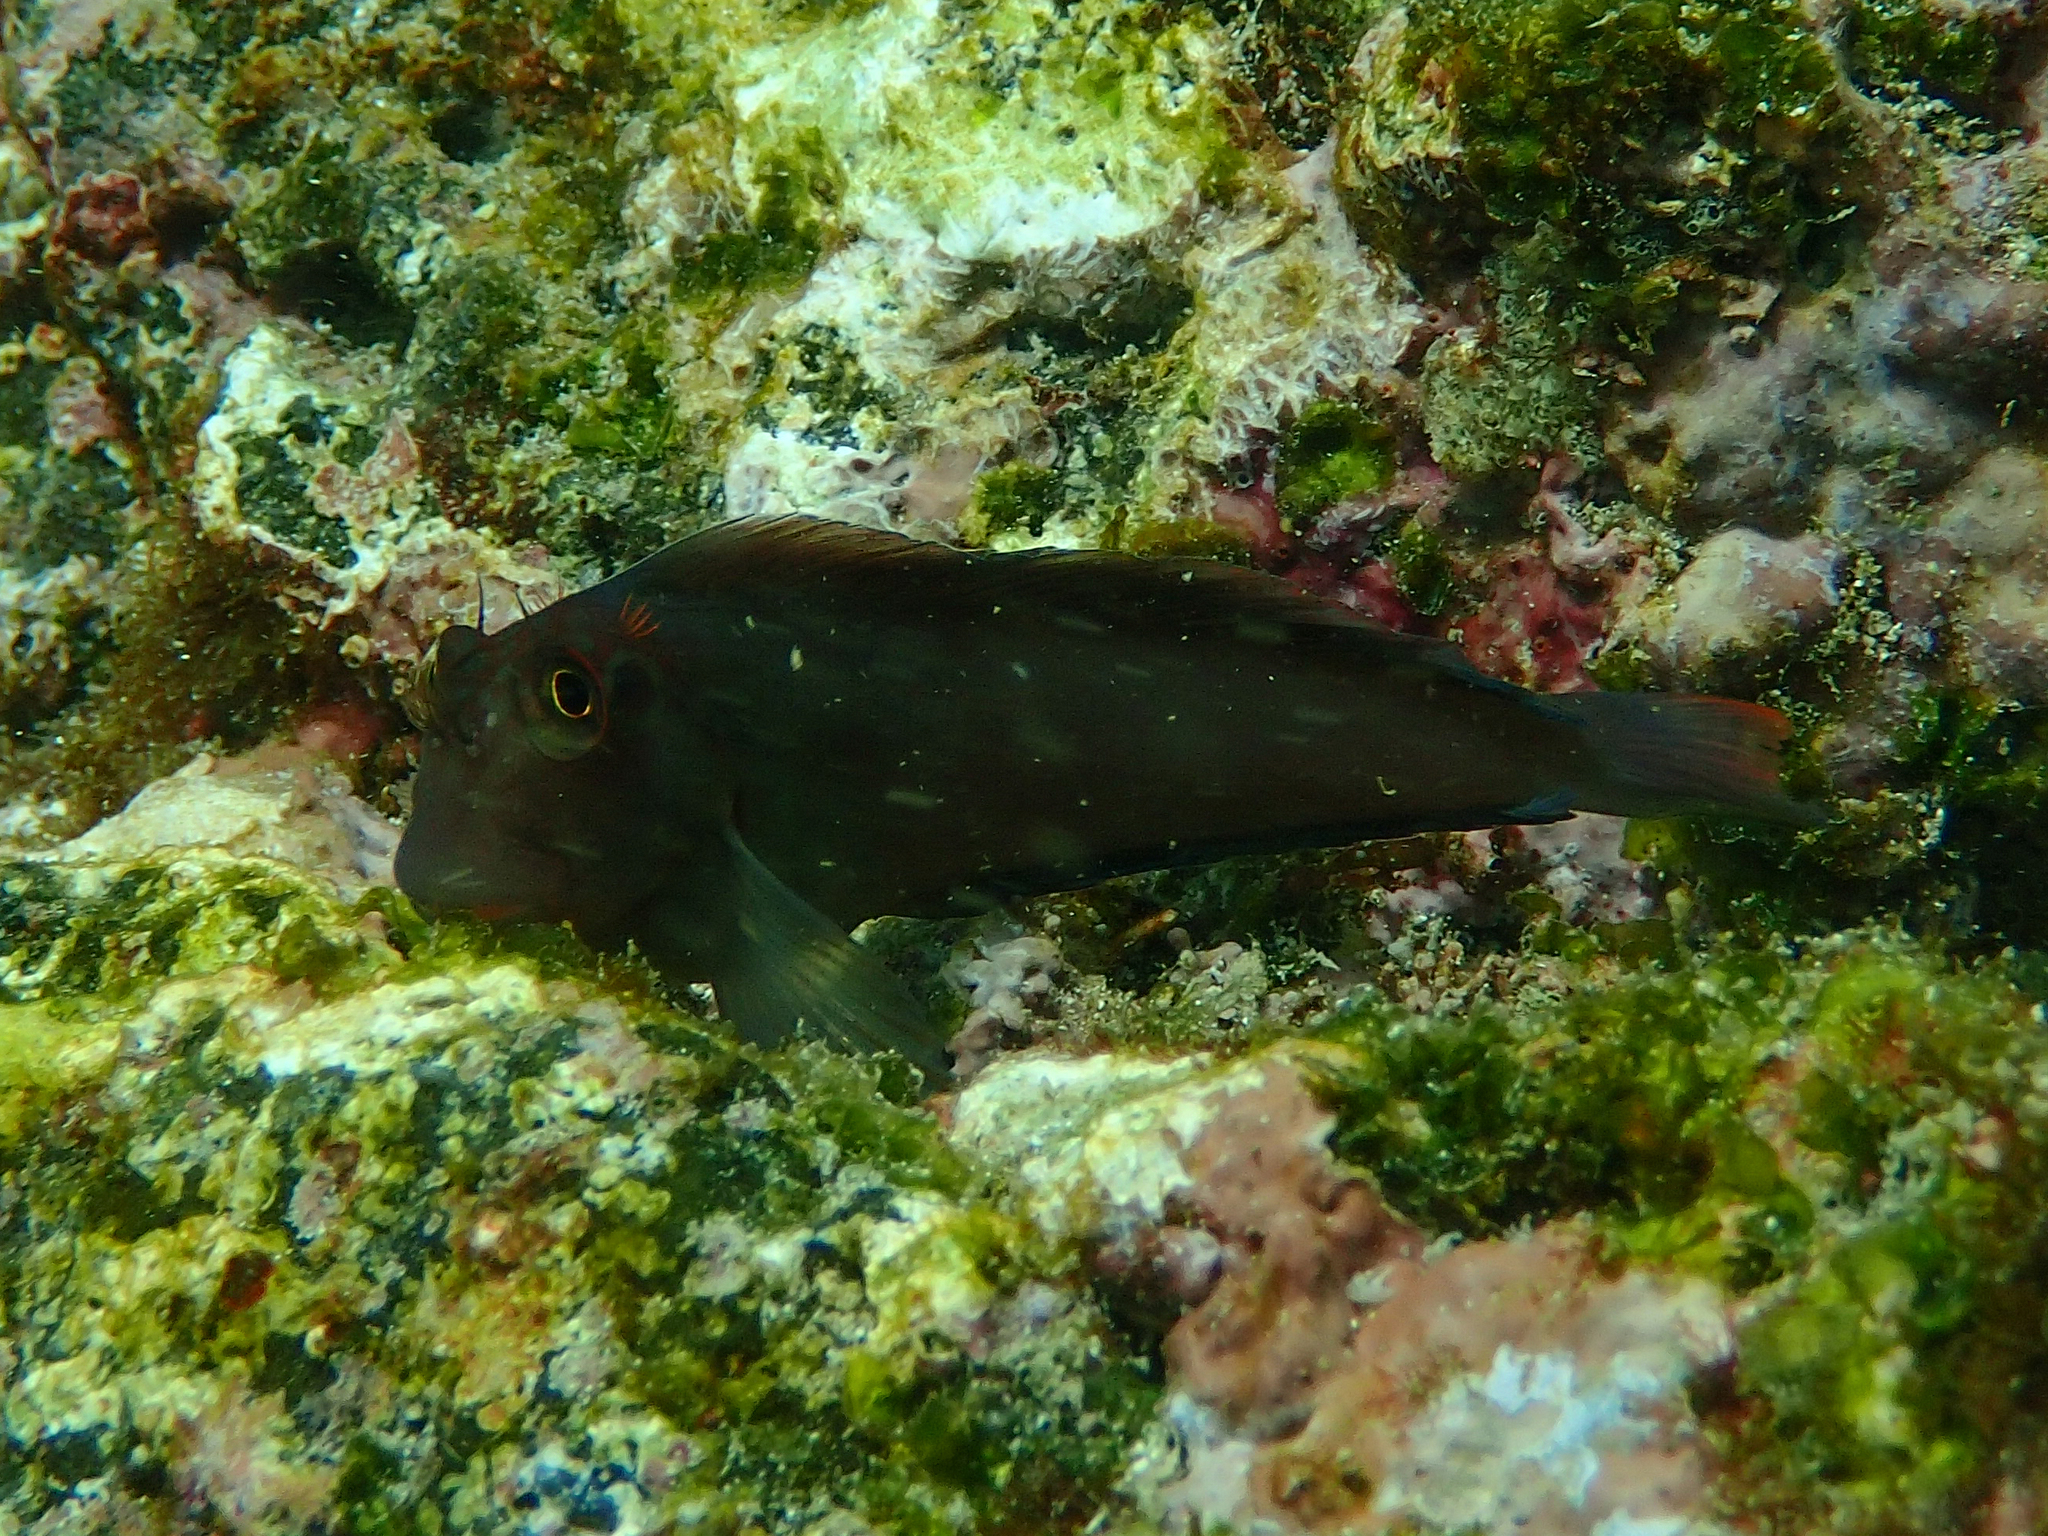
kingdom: Animalia
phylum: Chordata
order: Perciformes
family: Blenniidae
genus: Ophioblennius
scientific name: Ophioblennius steindachneri
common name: Panamic fanged blenny
